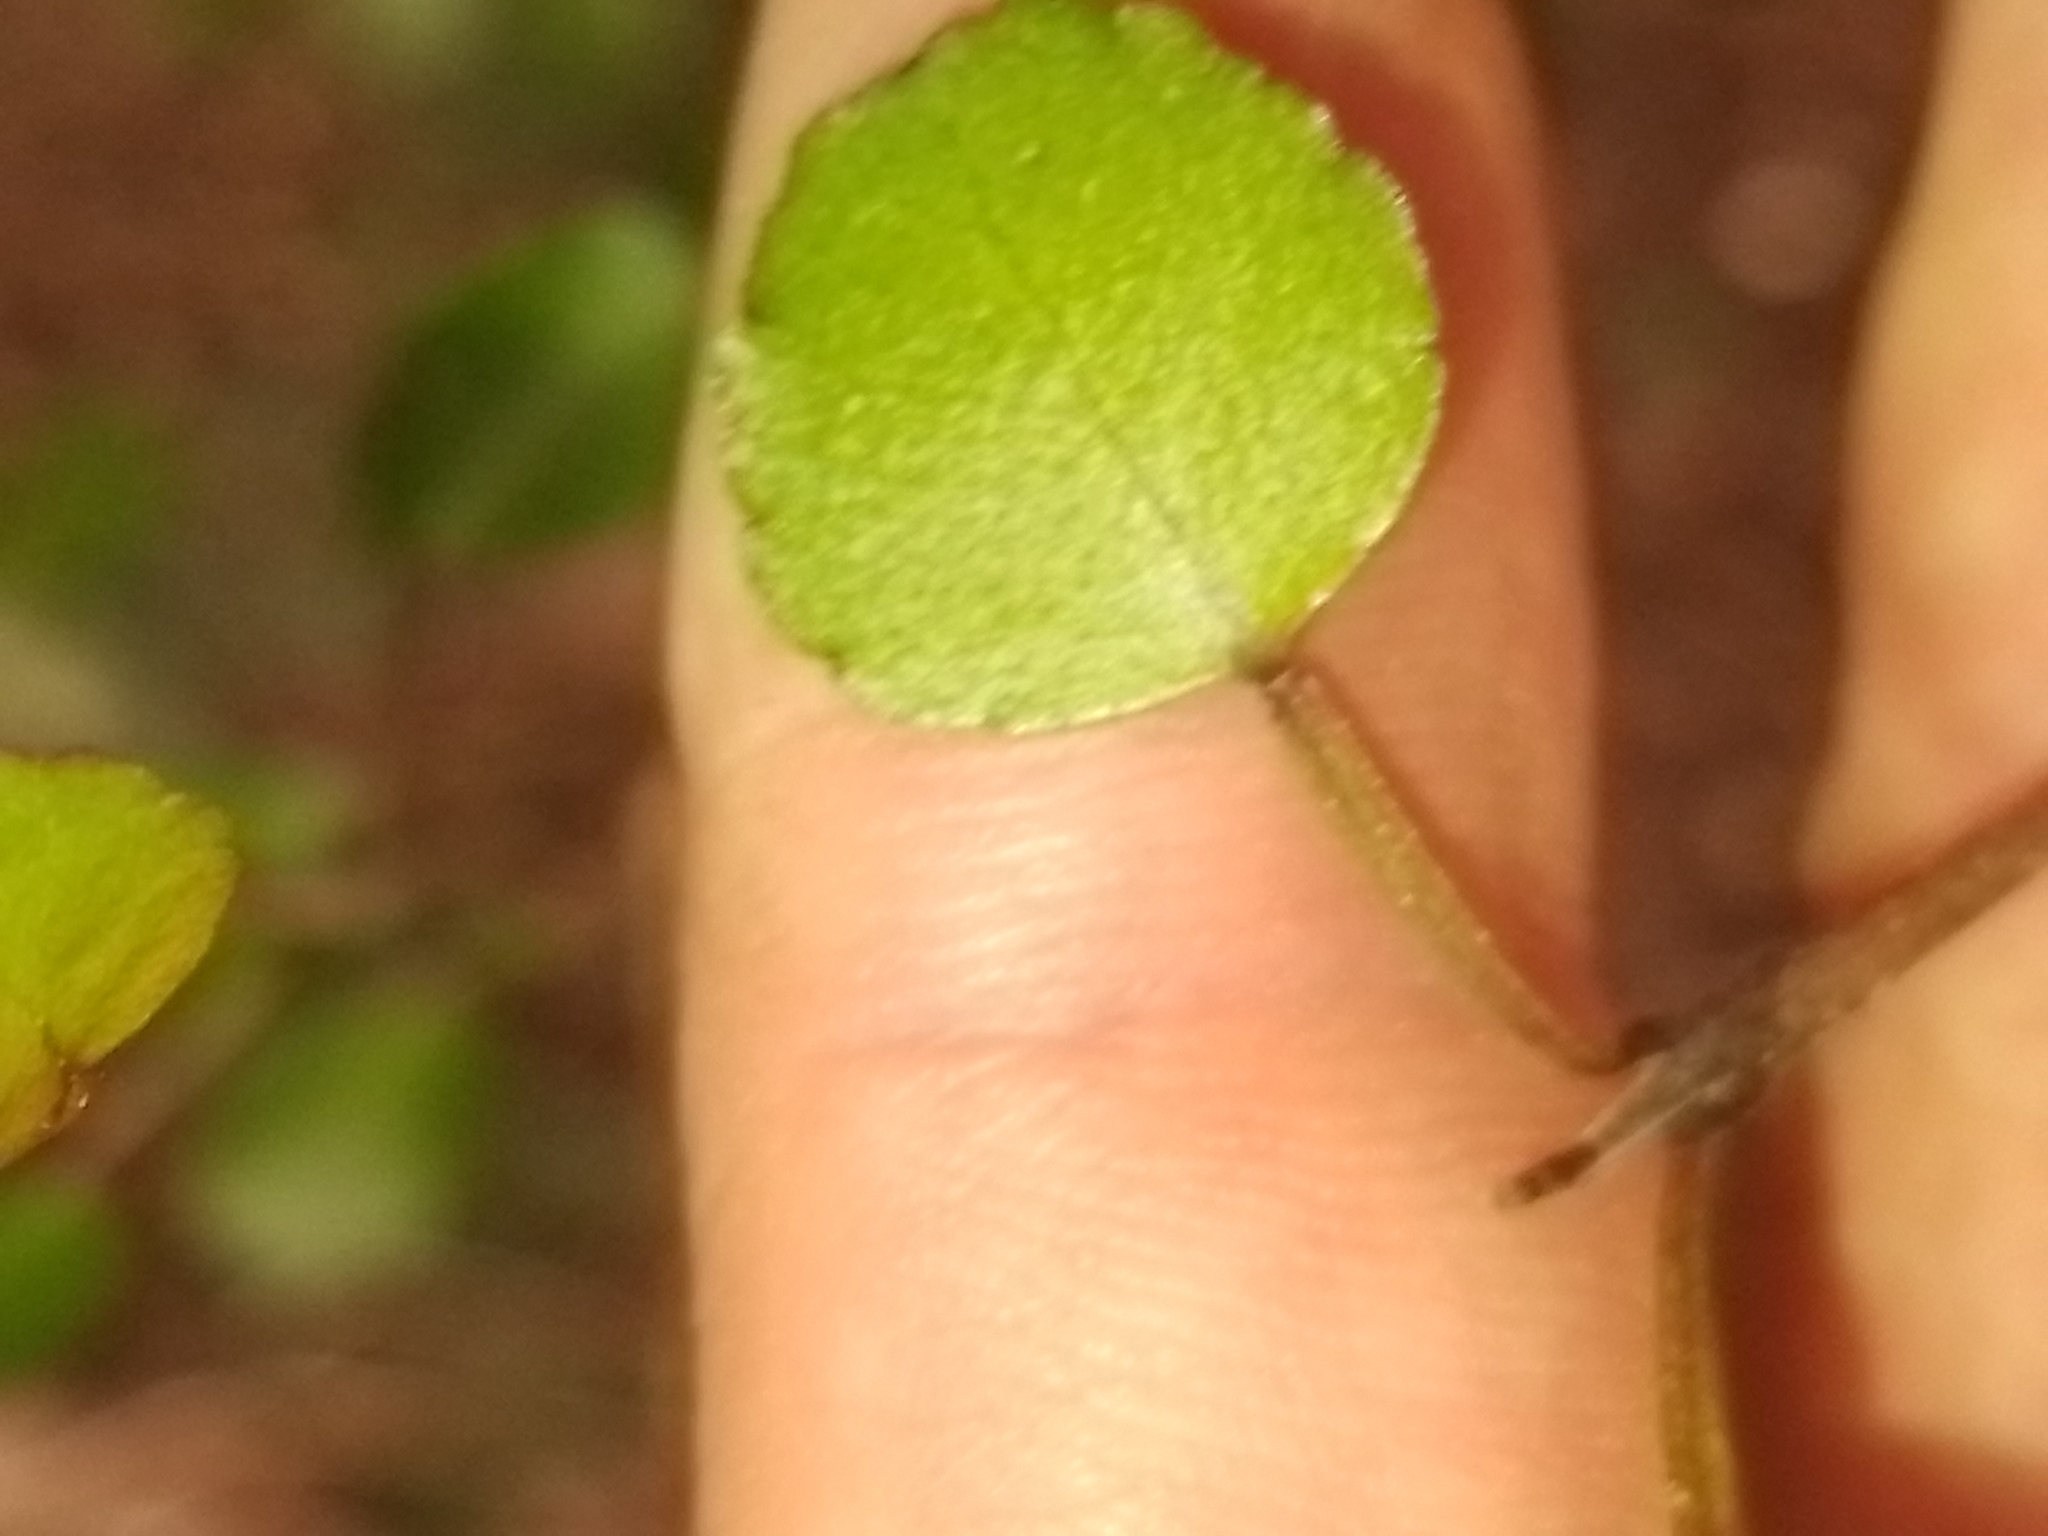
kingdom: Plantae
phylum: Tracheophyta
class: Magnoliopsida
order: Sapindales
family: Rutaceae
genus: Melicope
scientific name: Melicope simplex
